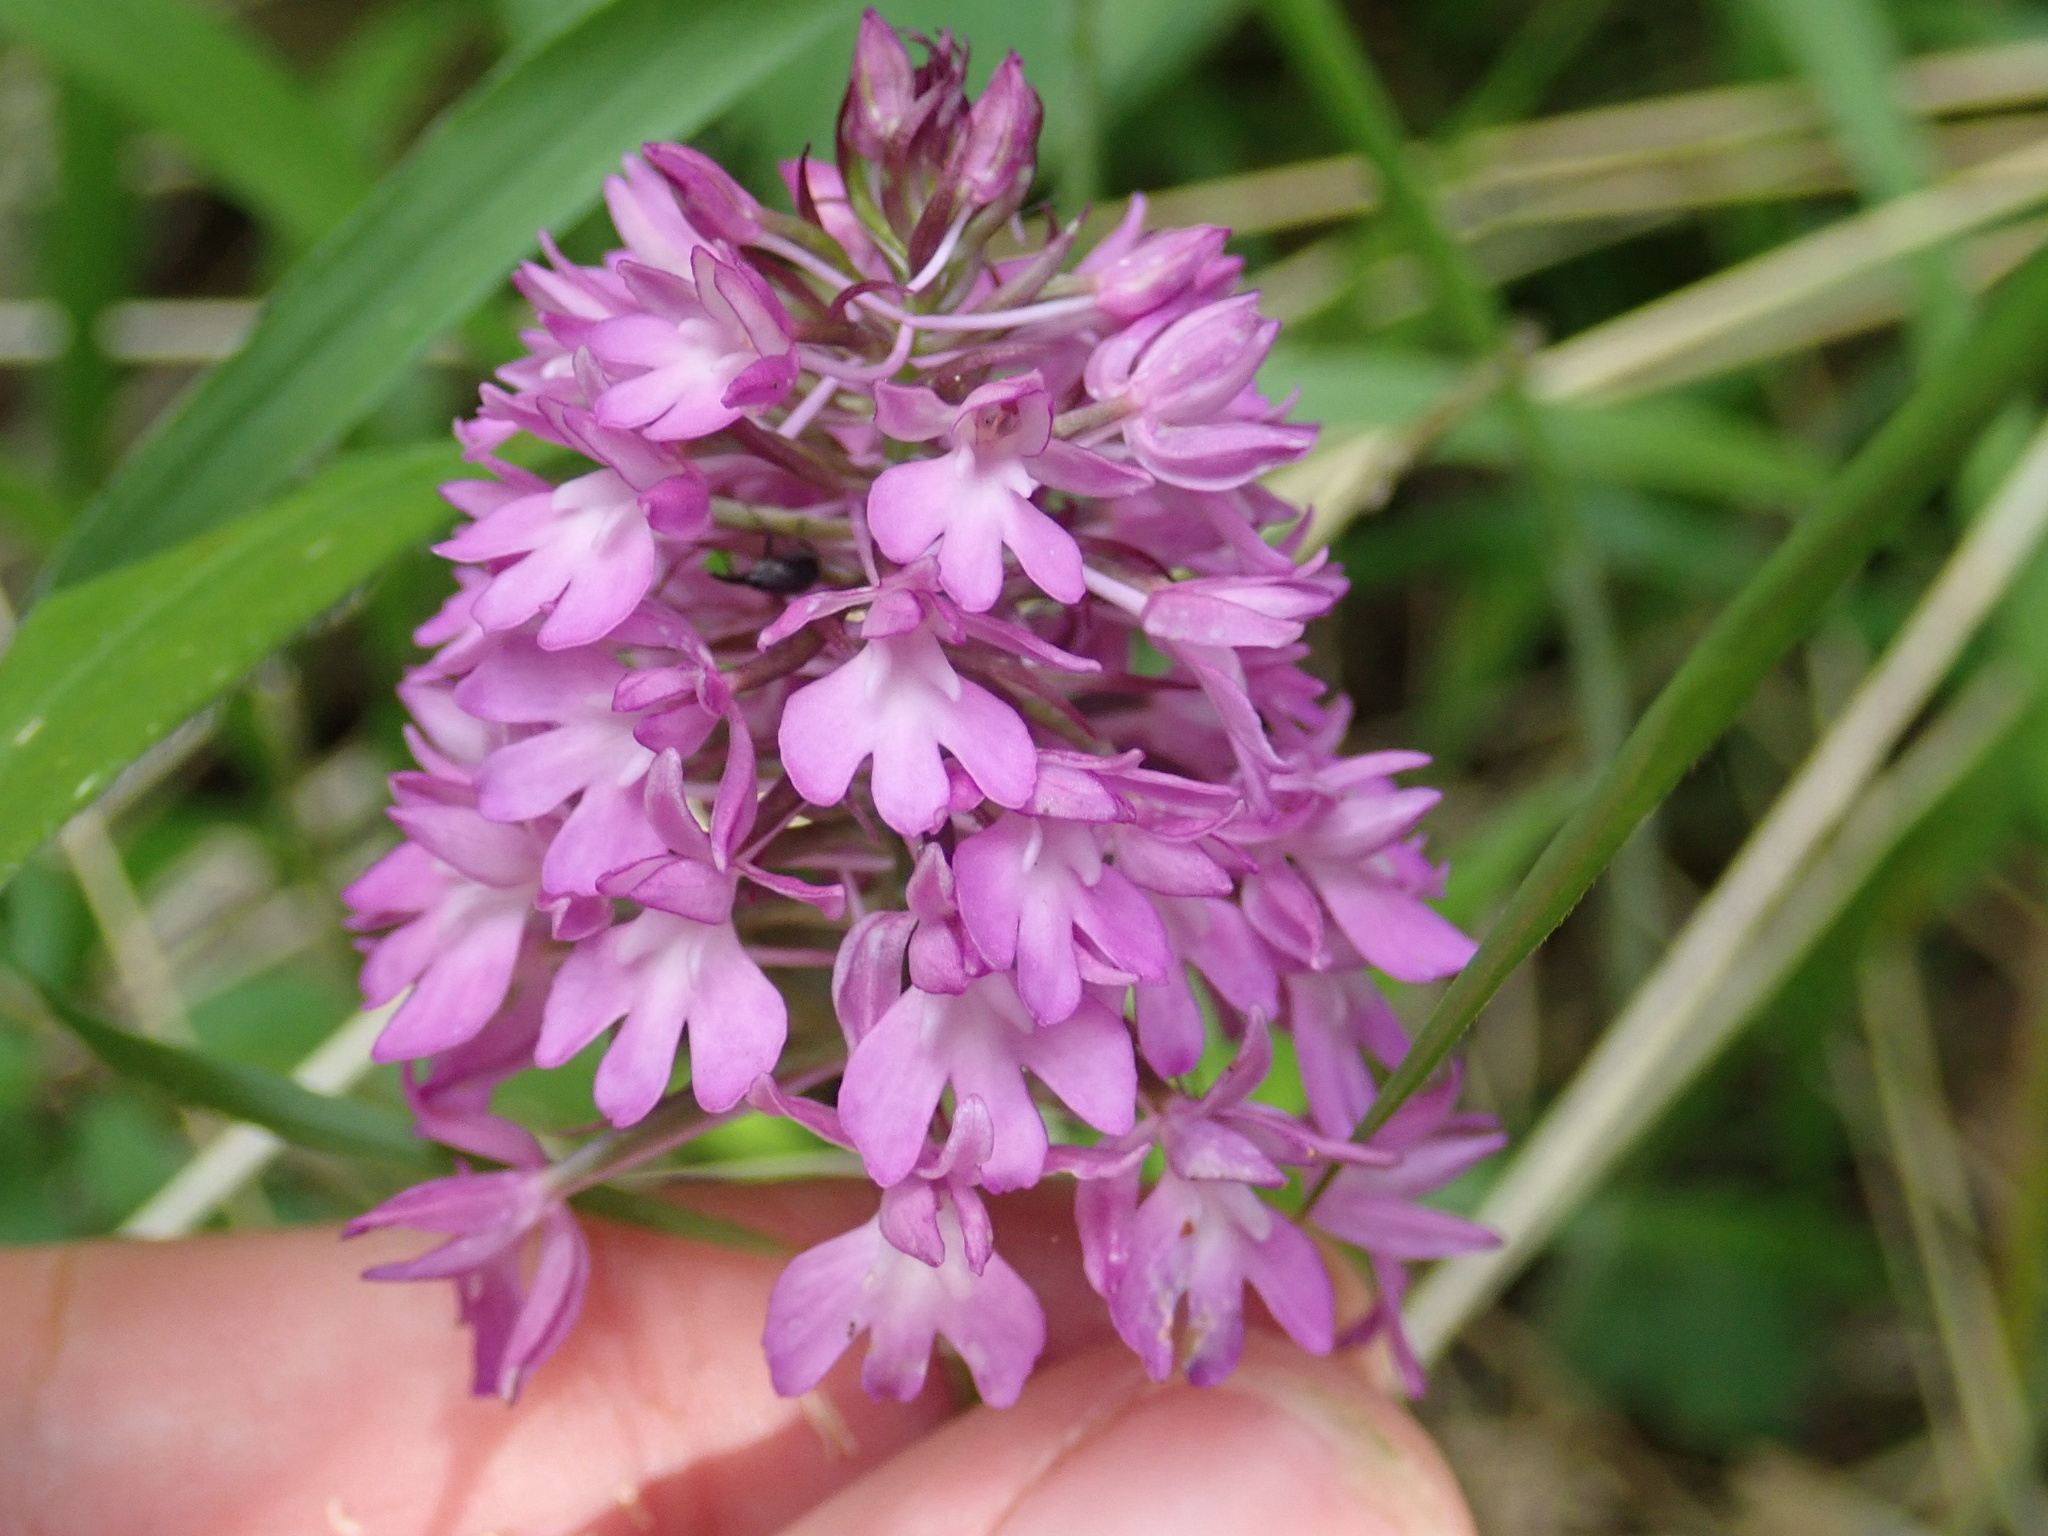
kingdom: Plantae
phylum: Tracheophyta
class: Liliopsida
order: Asparagales
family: Orchidaceae
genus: Anacamptis
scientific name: Anacamptis pyramidalis
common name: Pyramidal orchid
